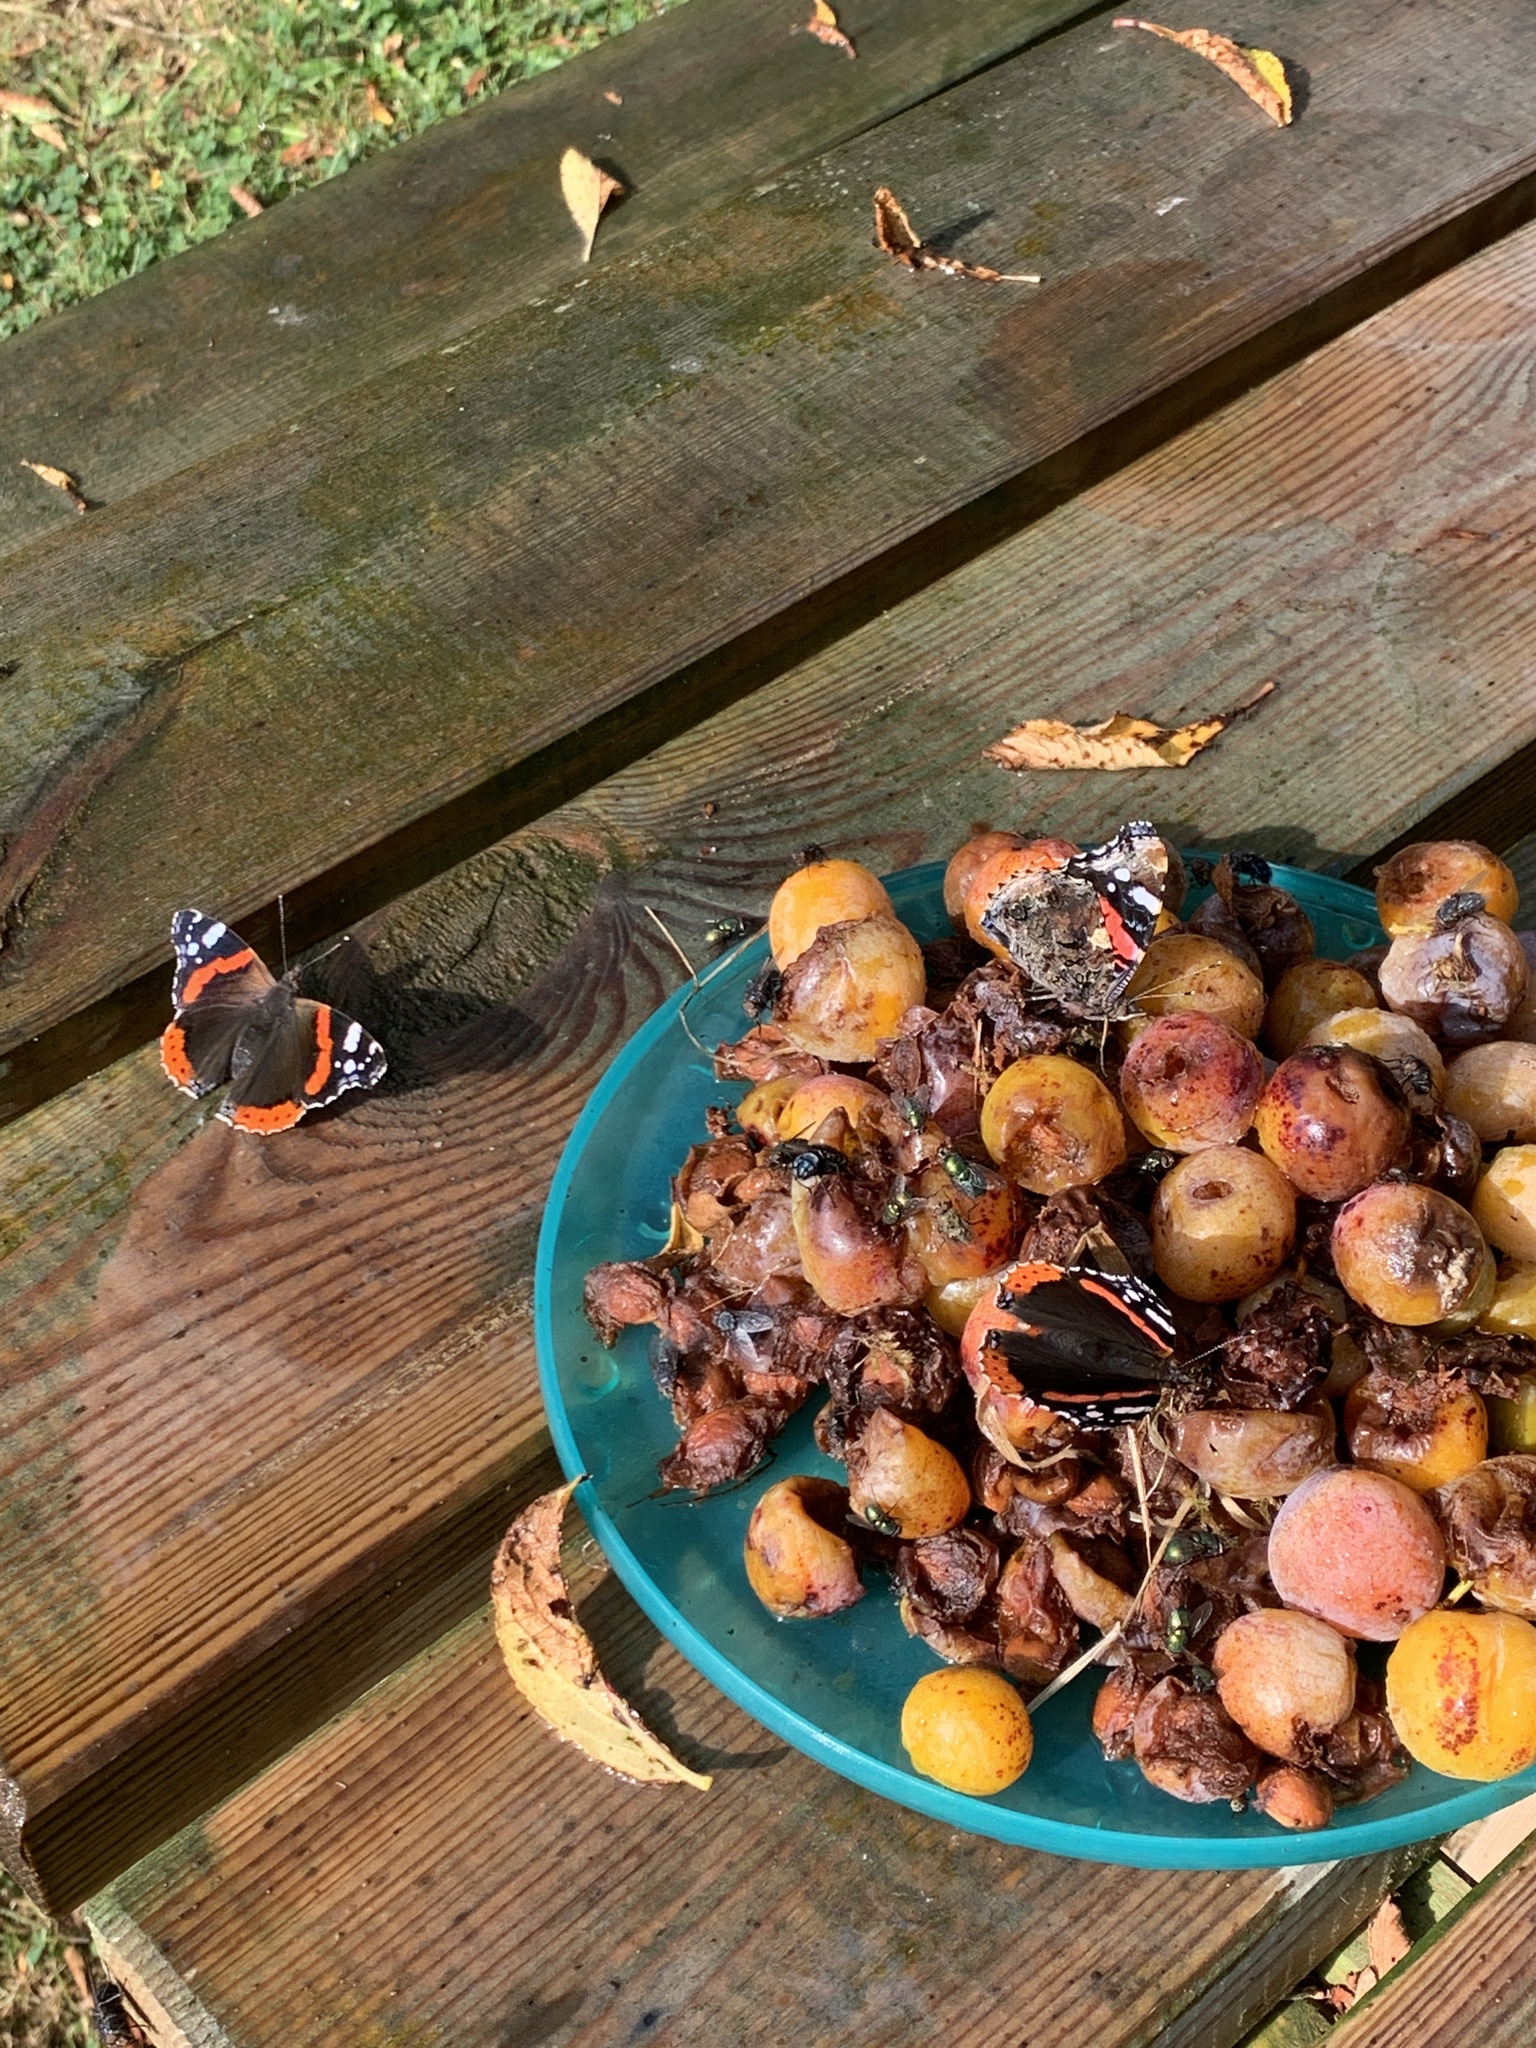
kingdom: Animalia
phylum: Arthropoda
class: Insecta
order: Lepidoptera
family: Nymphalidae
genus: Vanessa
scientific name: Vanessa atalanta
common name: Red admiral
